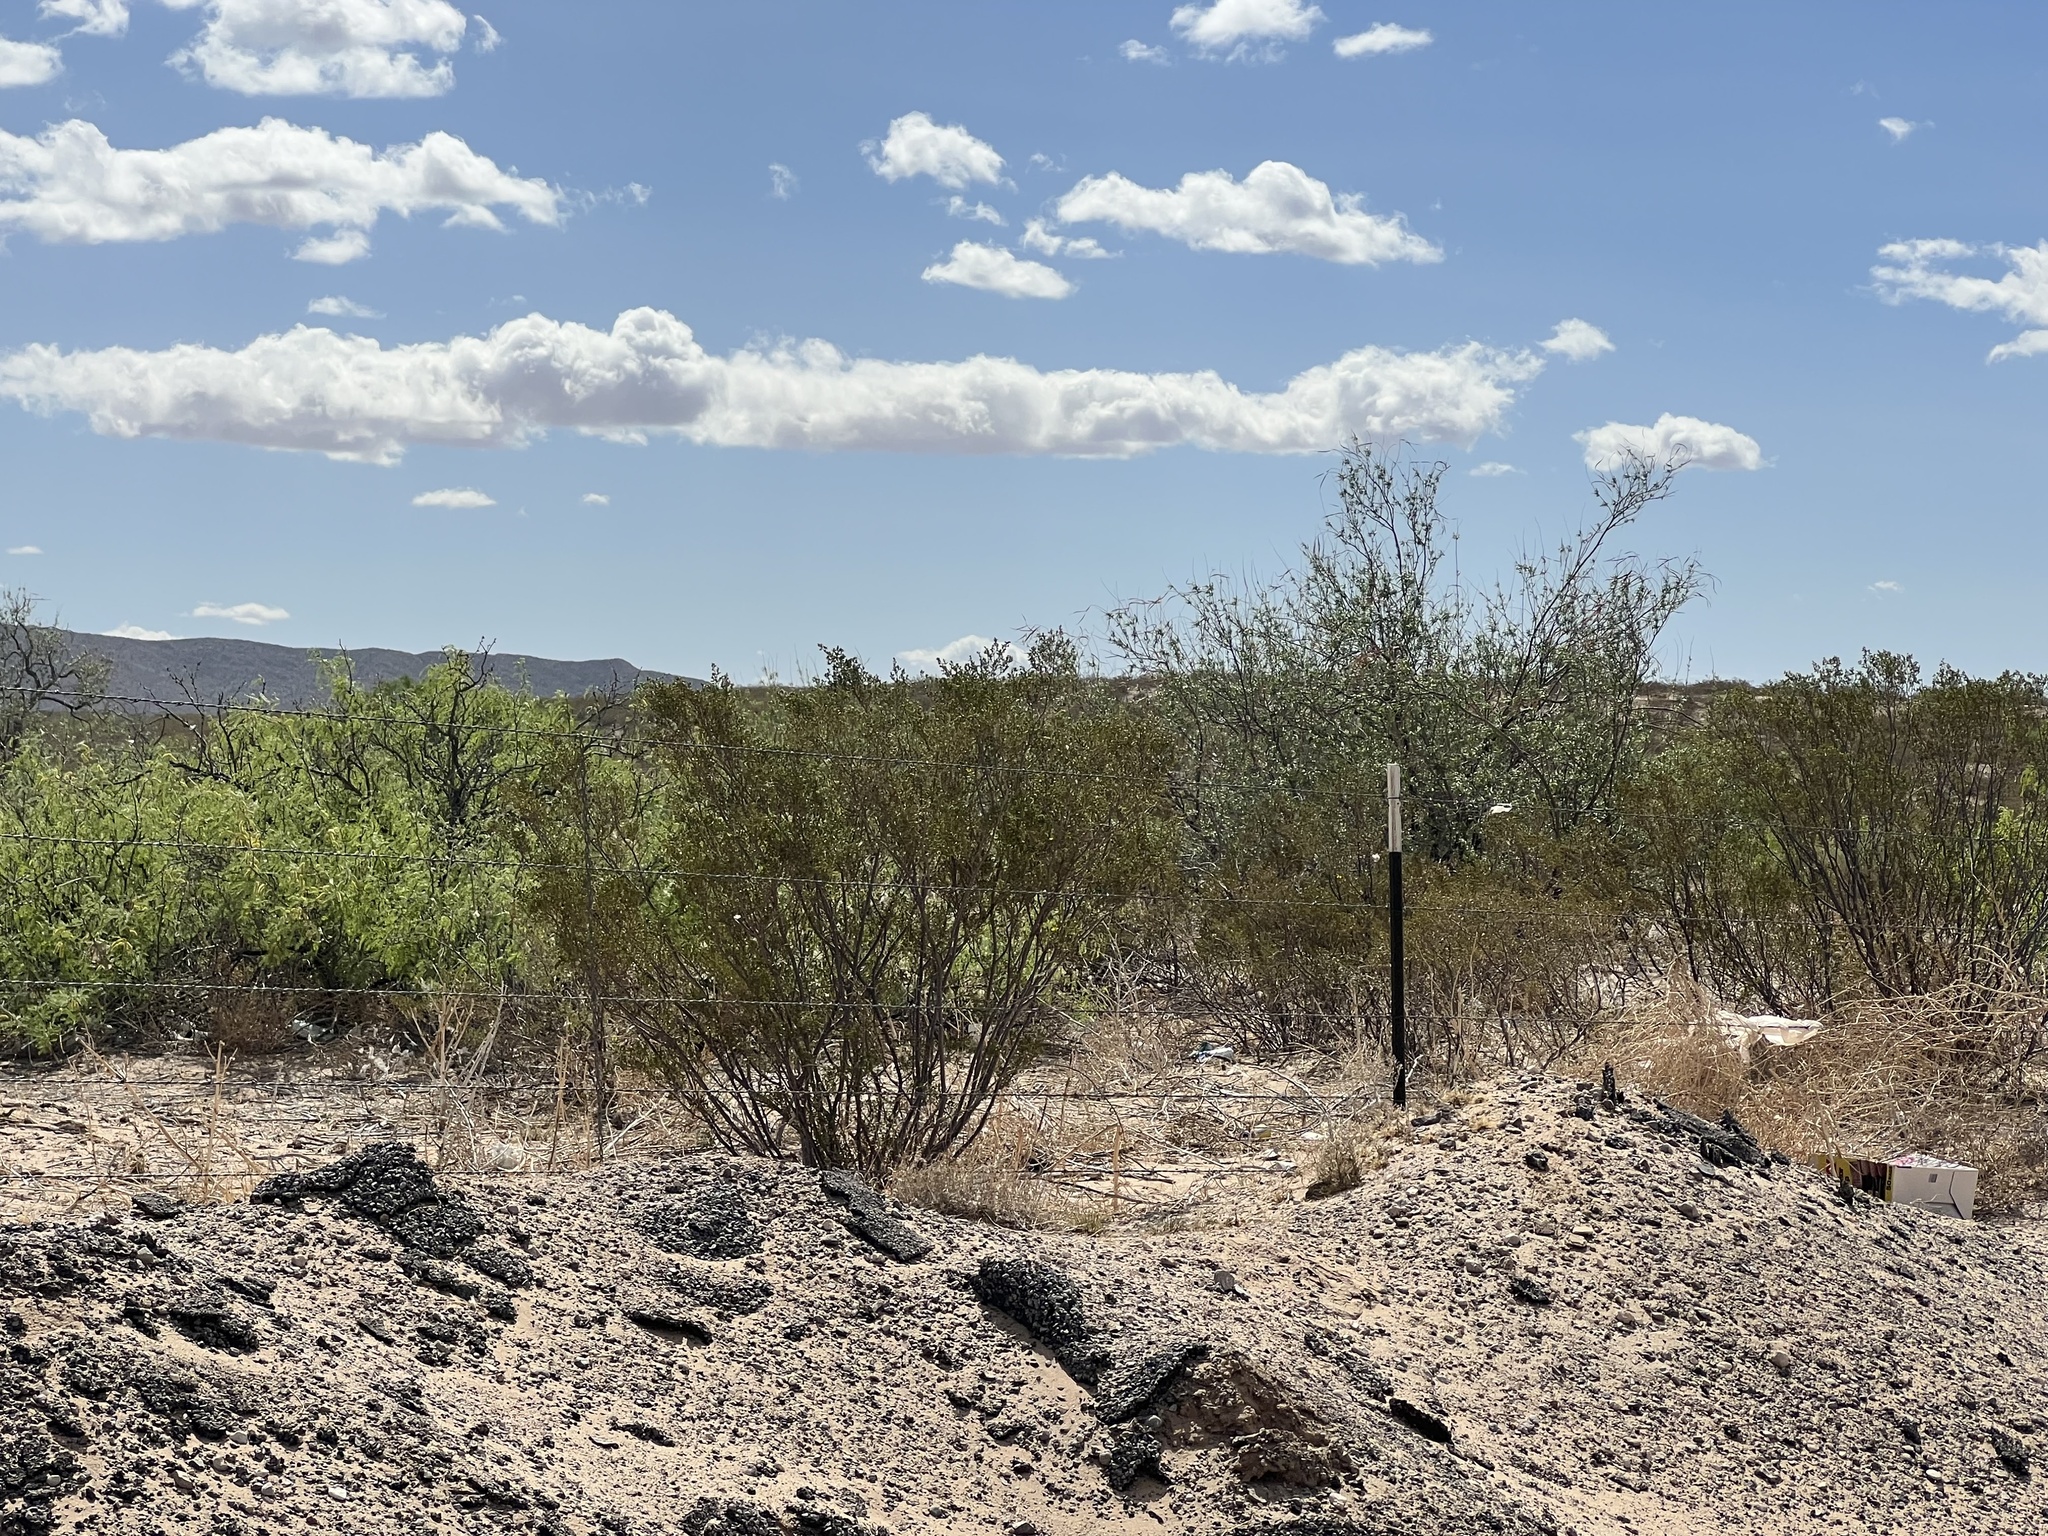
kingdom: Plantae
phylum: Tracheophyta
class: Magnoliopsida
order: Zygophyllales
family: Zygophyllaceae
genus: Larrea
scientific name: Larrea tridentata
